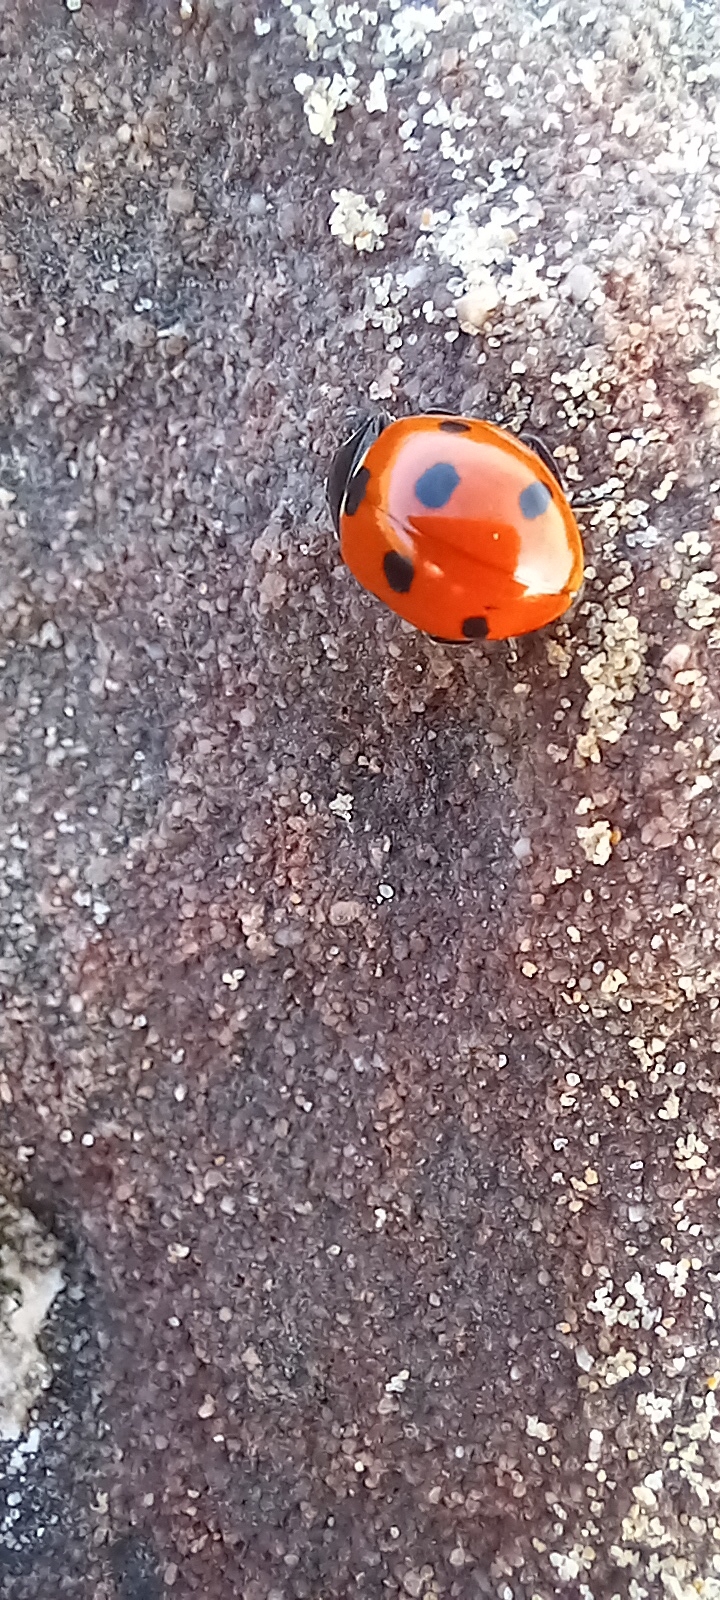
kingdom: Animalia
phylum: Arthropoda
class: Insecta
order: Coleoptera
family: Coccinellidae
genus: Coccinella
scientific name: Coccinella septempunctata
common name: Sevenspotted lady beetle
